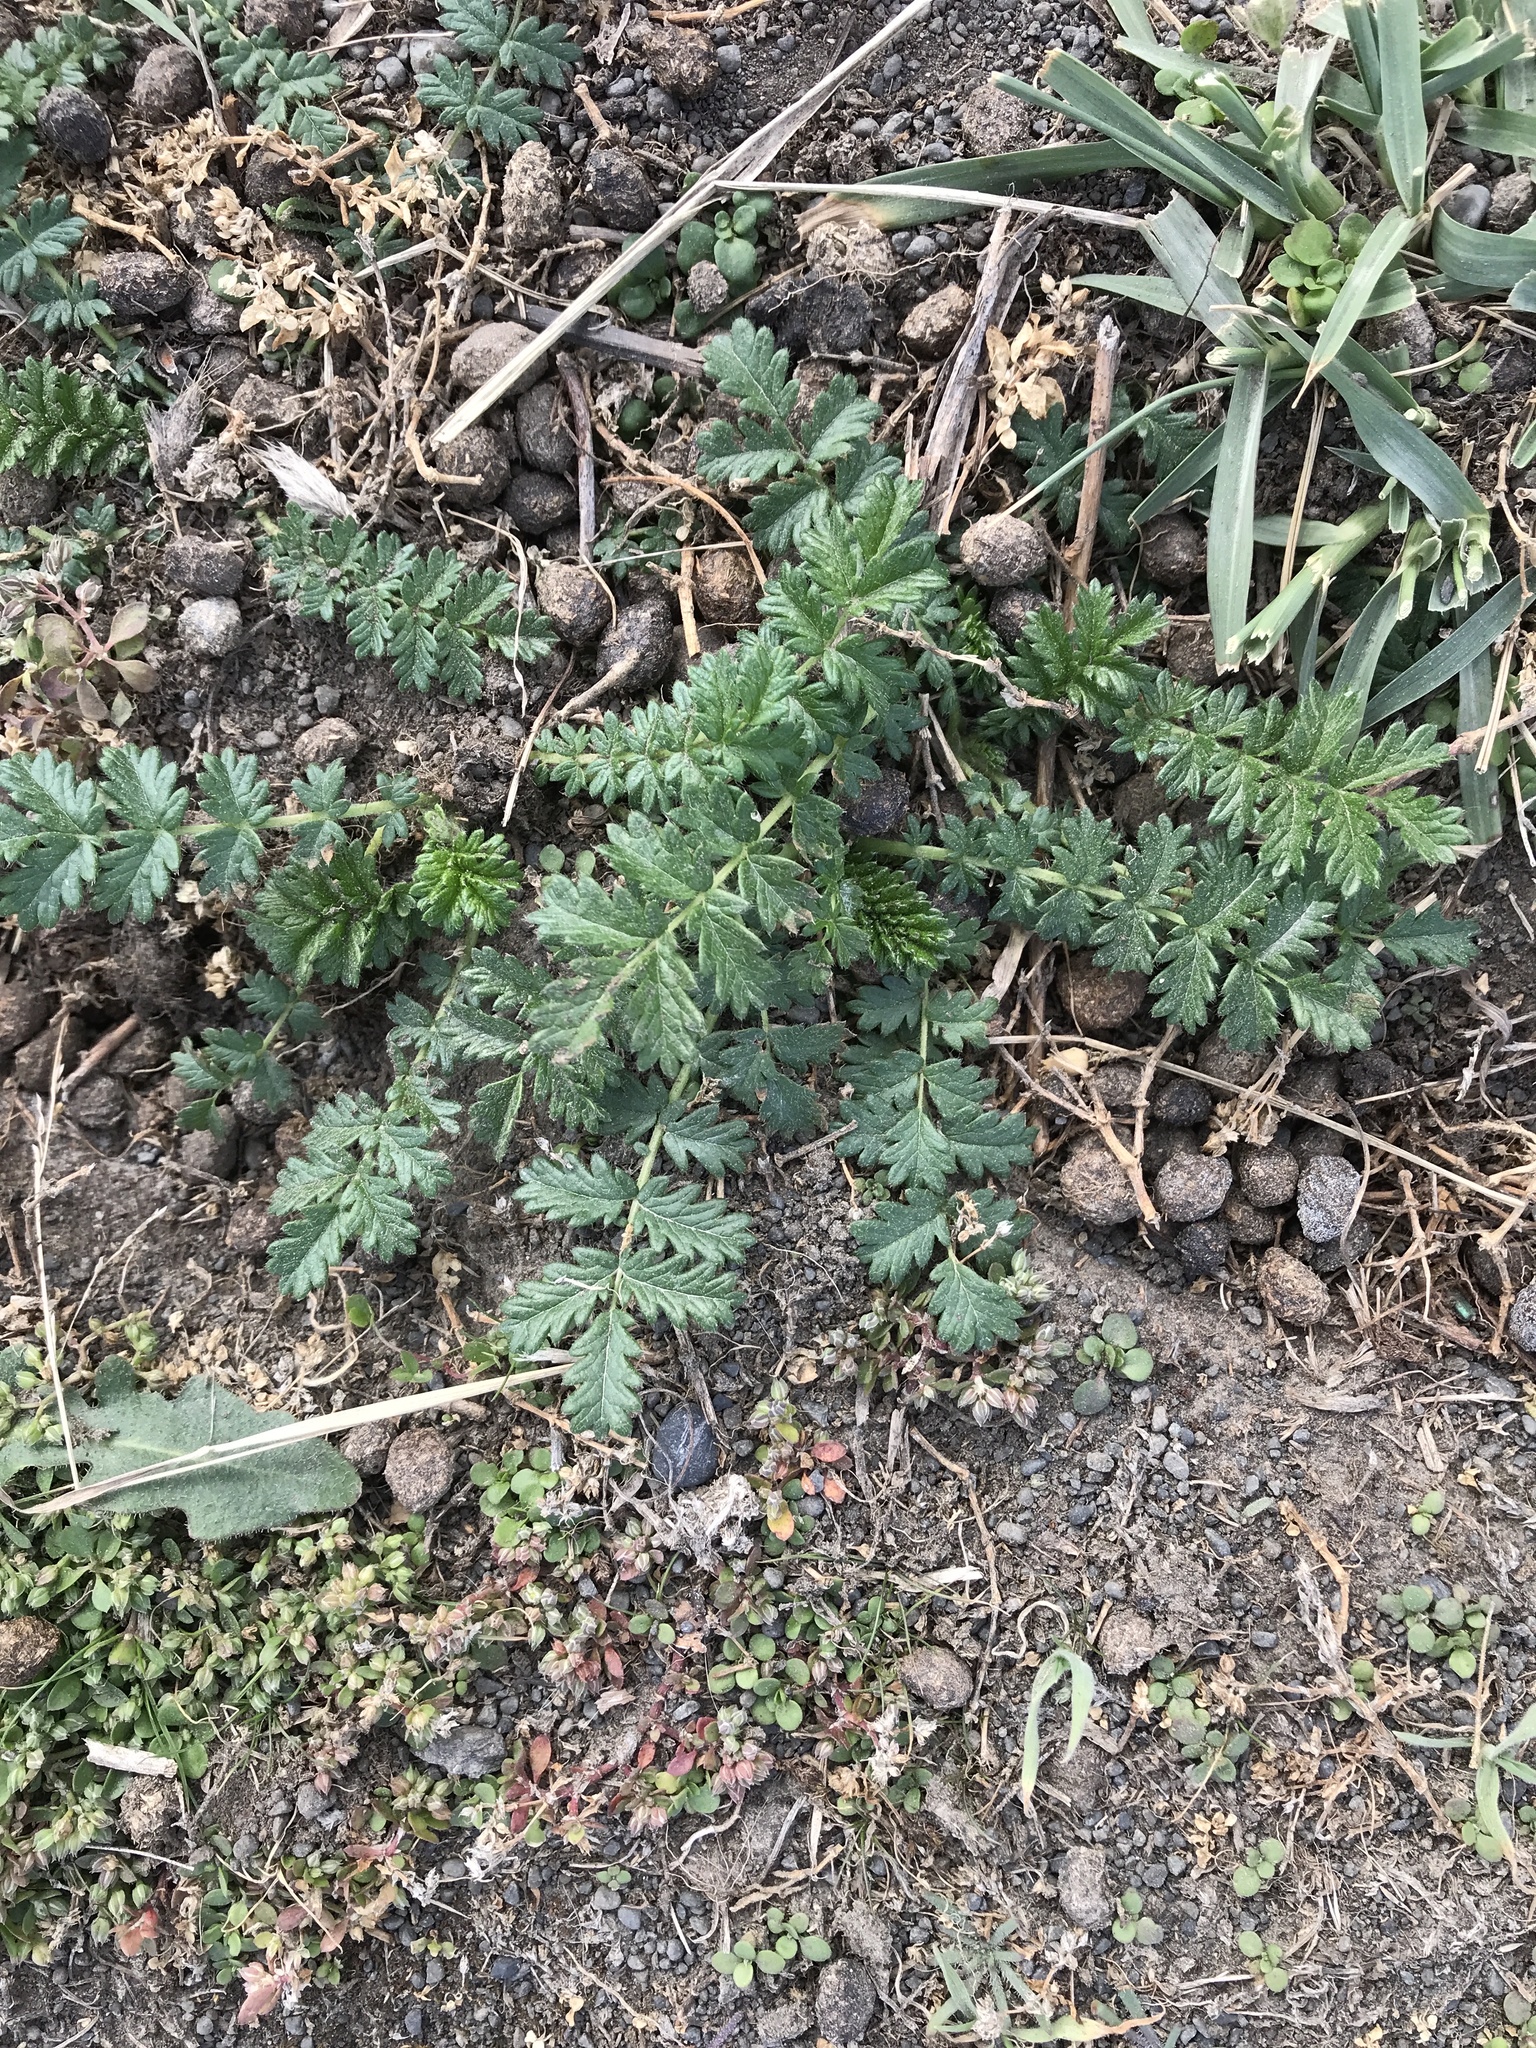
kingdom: Plantae
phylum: Tracheophyta
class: Magnoliopsida
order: Rosales
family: Rosaceae
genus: Acaena
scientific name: Acaena novae-zelandiae
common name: Pirri-pirri-bur
